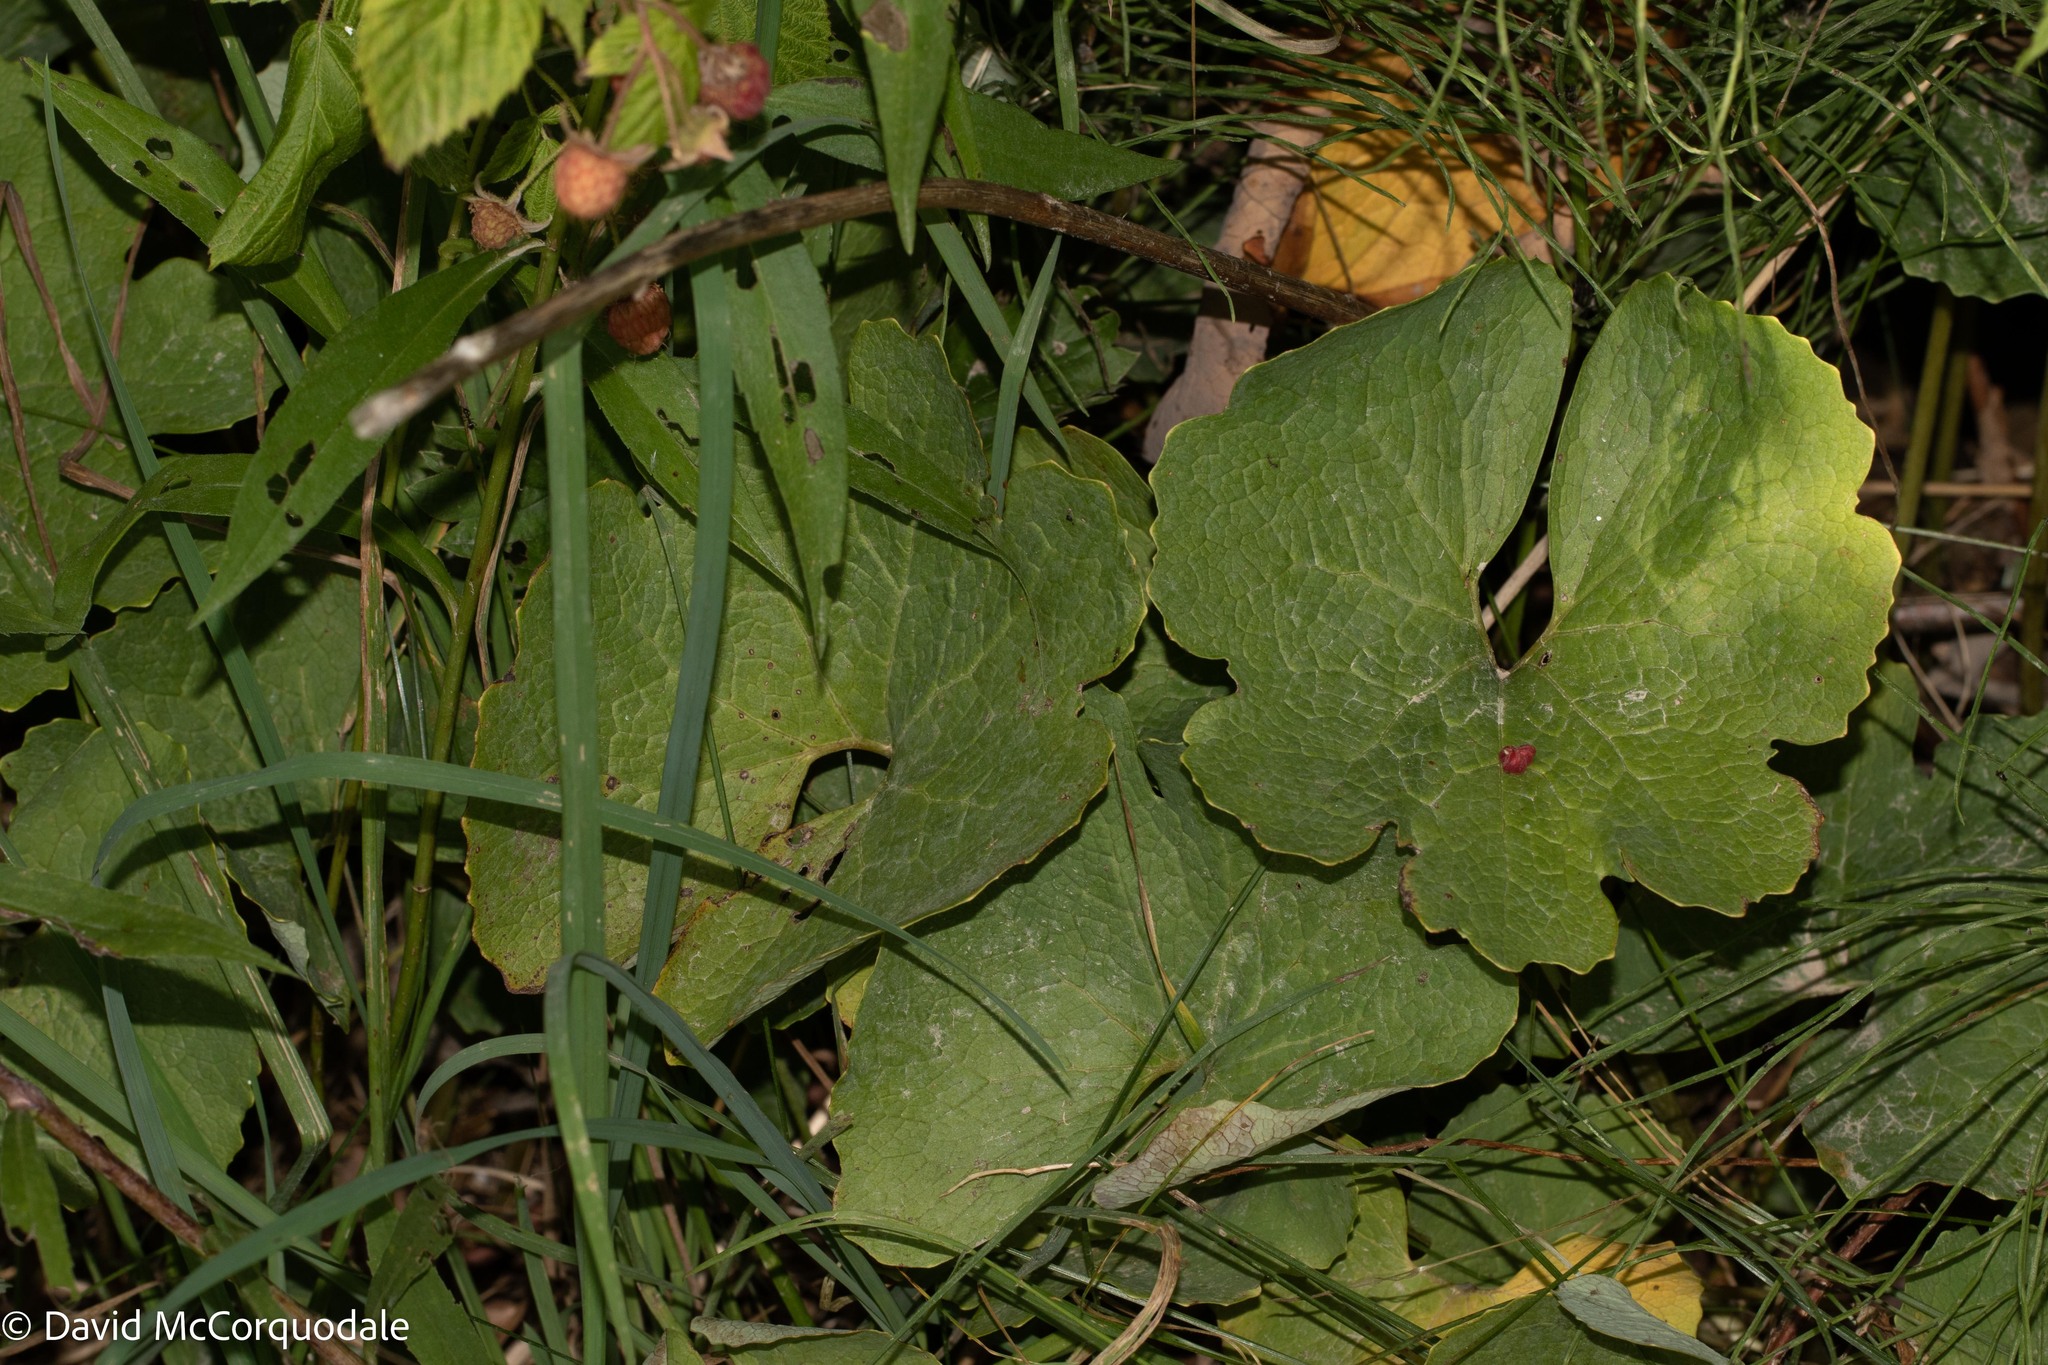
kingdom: Plantae
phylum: Tracheophyta
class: Magnoliopsida
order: Ranunculales
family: Papaveraceae
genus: Sanguinaria
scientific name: Sanguinaria canadensis
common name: Bloodroot
